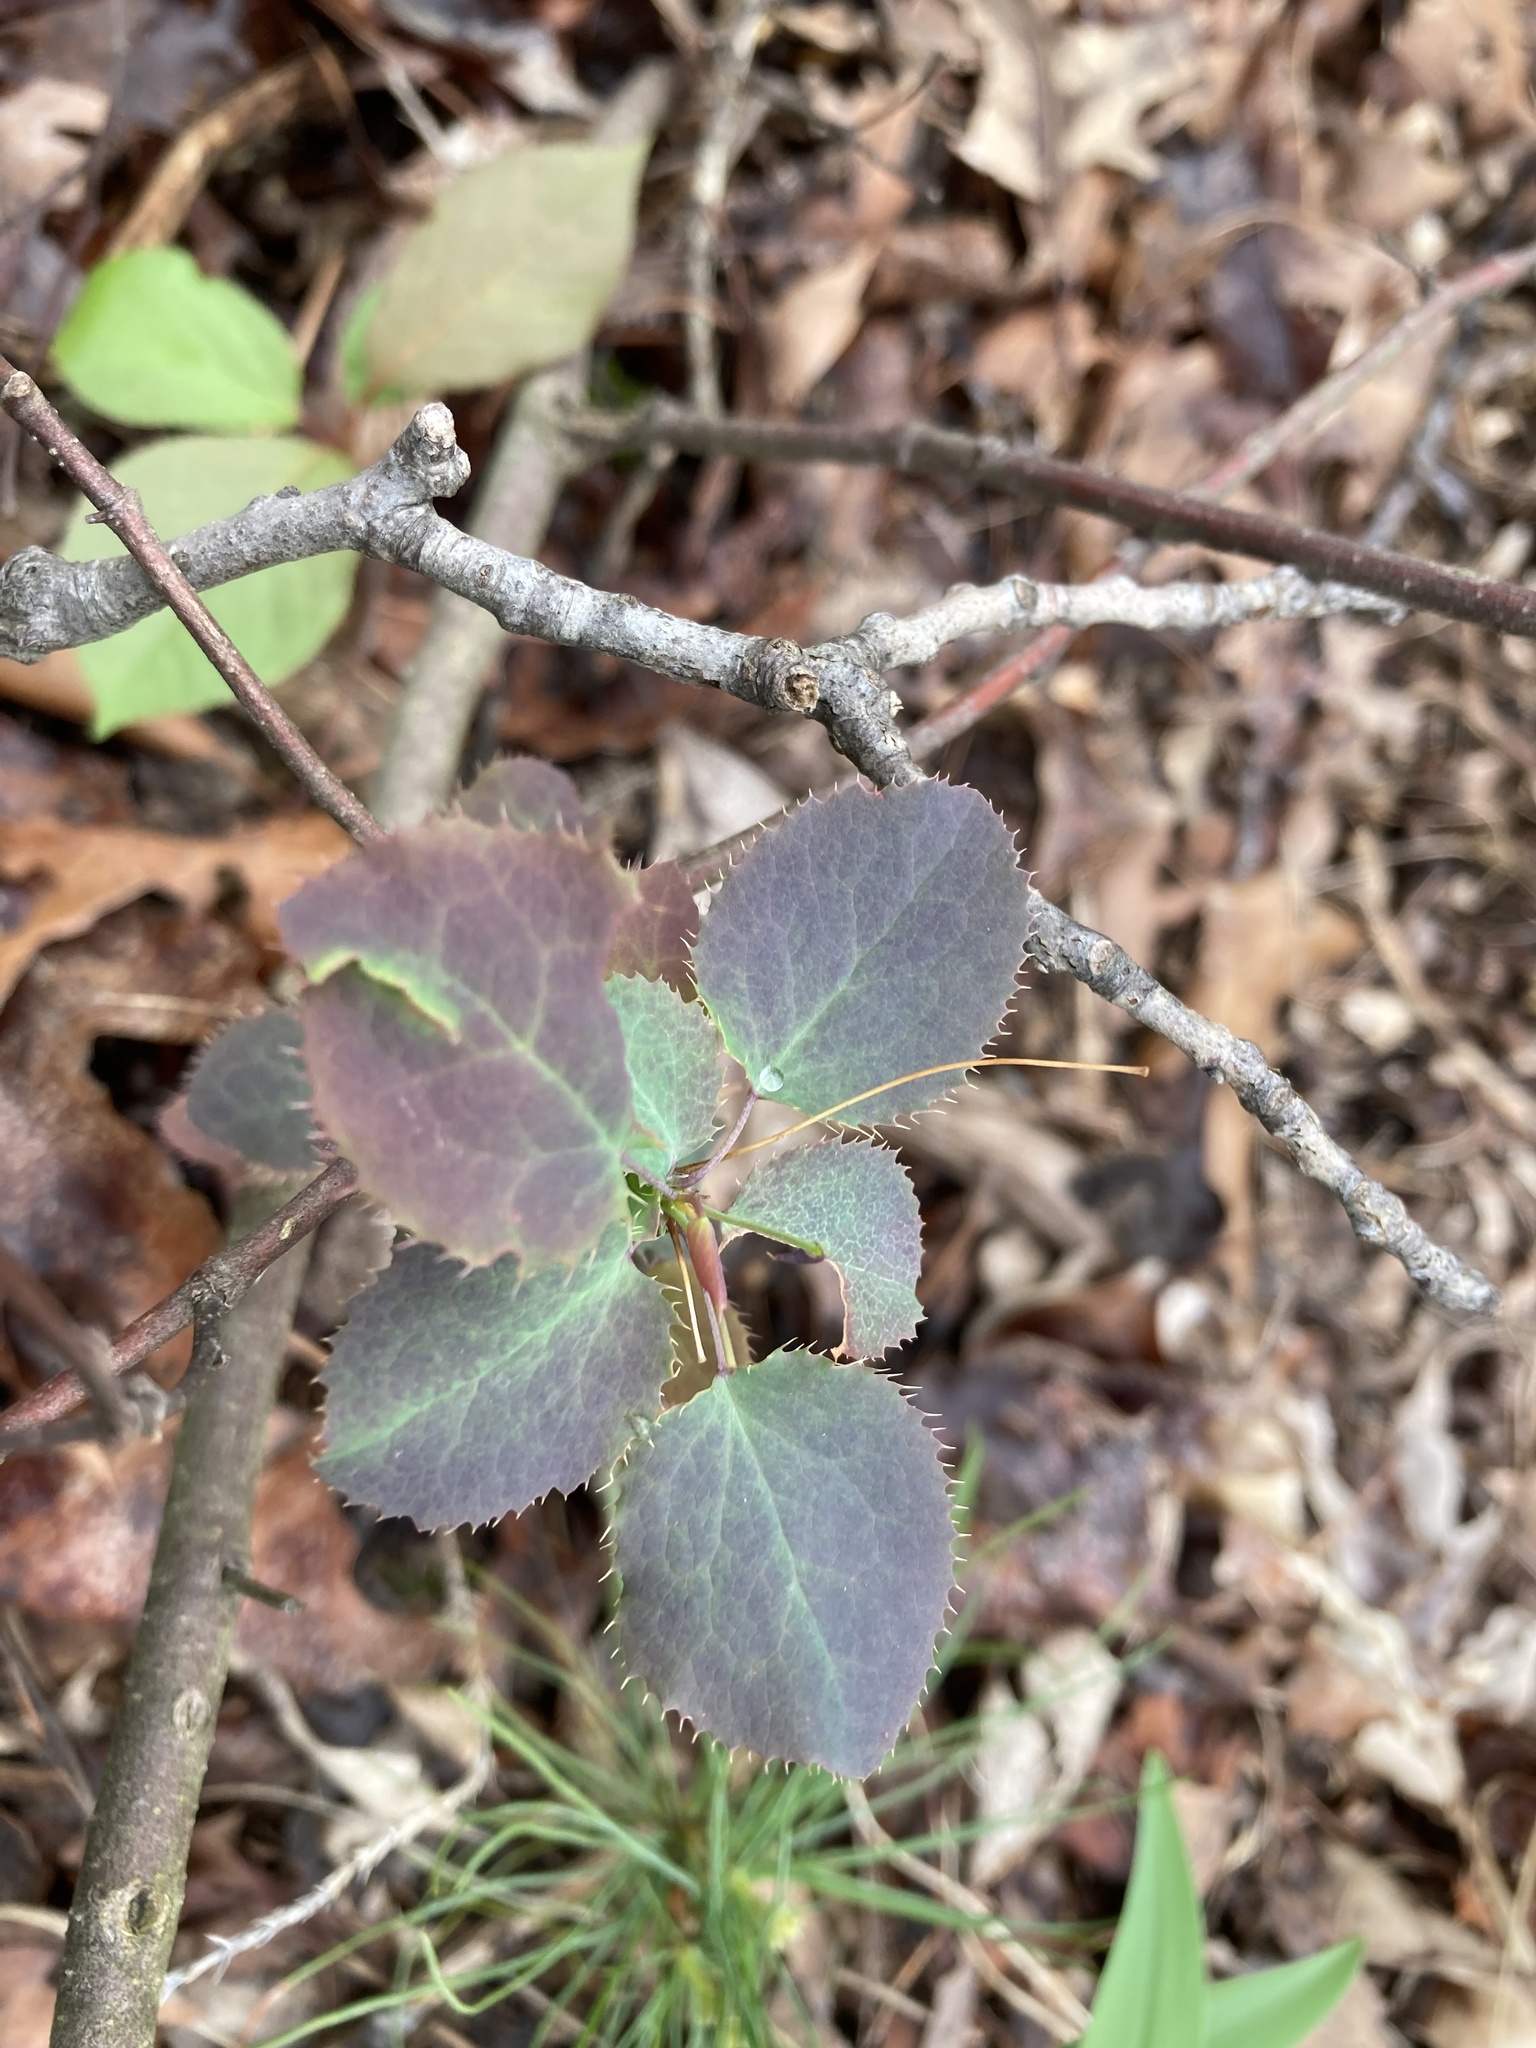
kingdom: Plantae
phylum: Tracheophyta
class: Magnoliopsida
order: Ranunculales
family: Berberidaceae
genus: Berberis
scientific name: Berberis vulgaris
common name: Barberry
